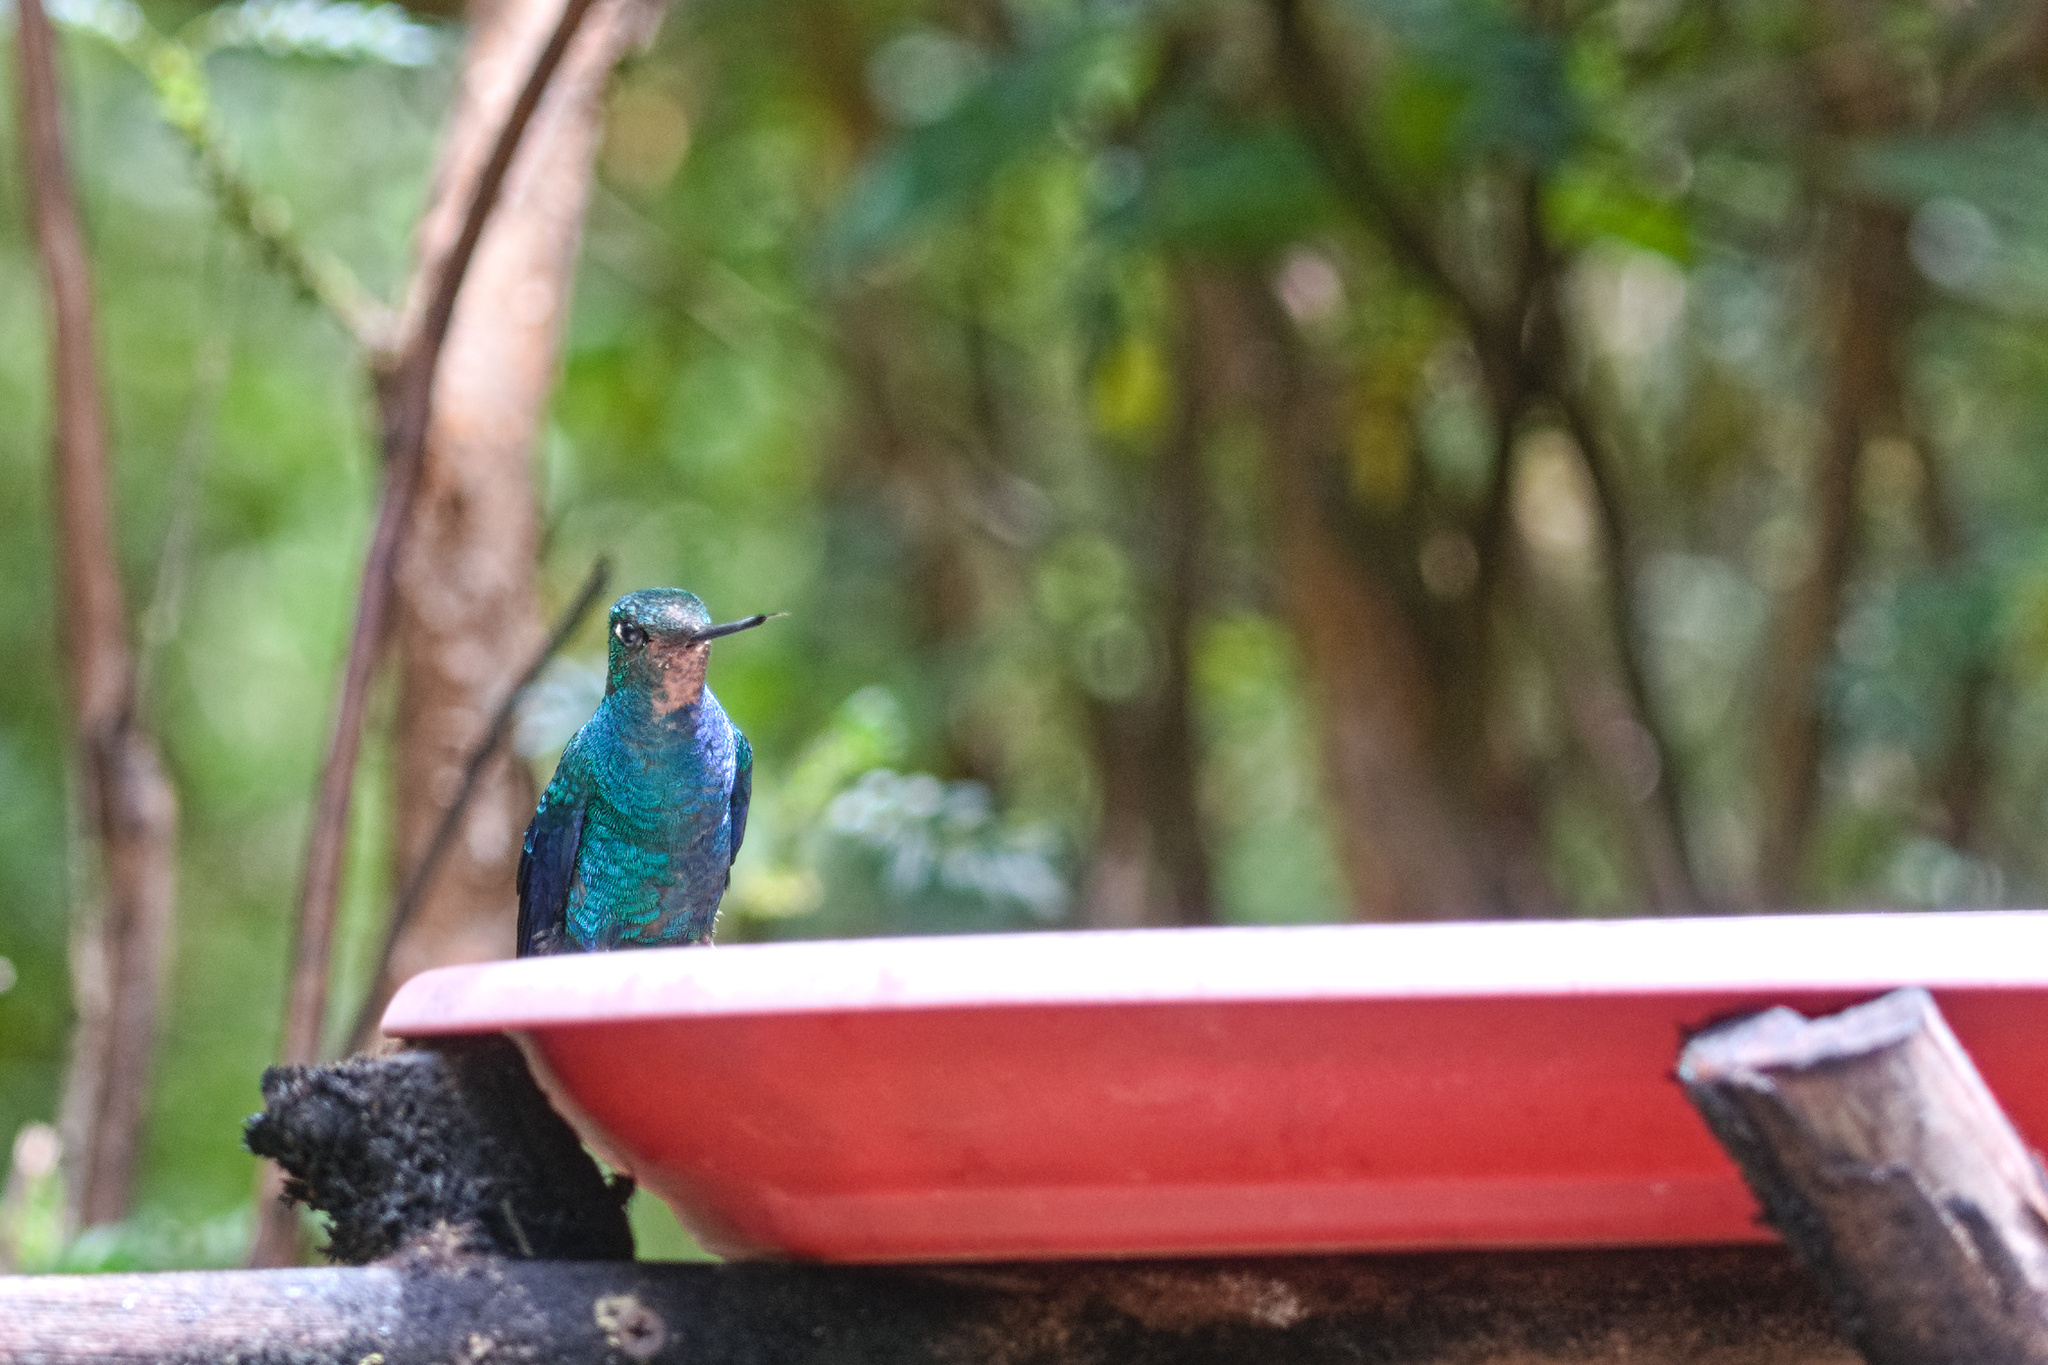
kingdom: Animalia
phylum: Chordata
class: Aves
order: Apodiformes
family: Trochilidae
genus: Pterophanes
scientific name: Pterophanes cyanopterus
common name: Great sapphirewing
